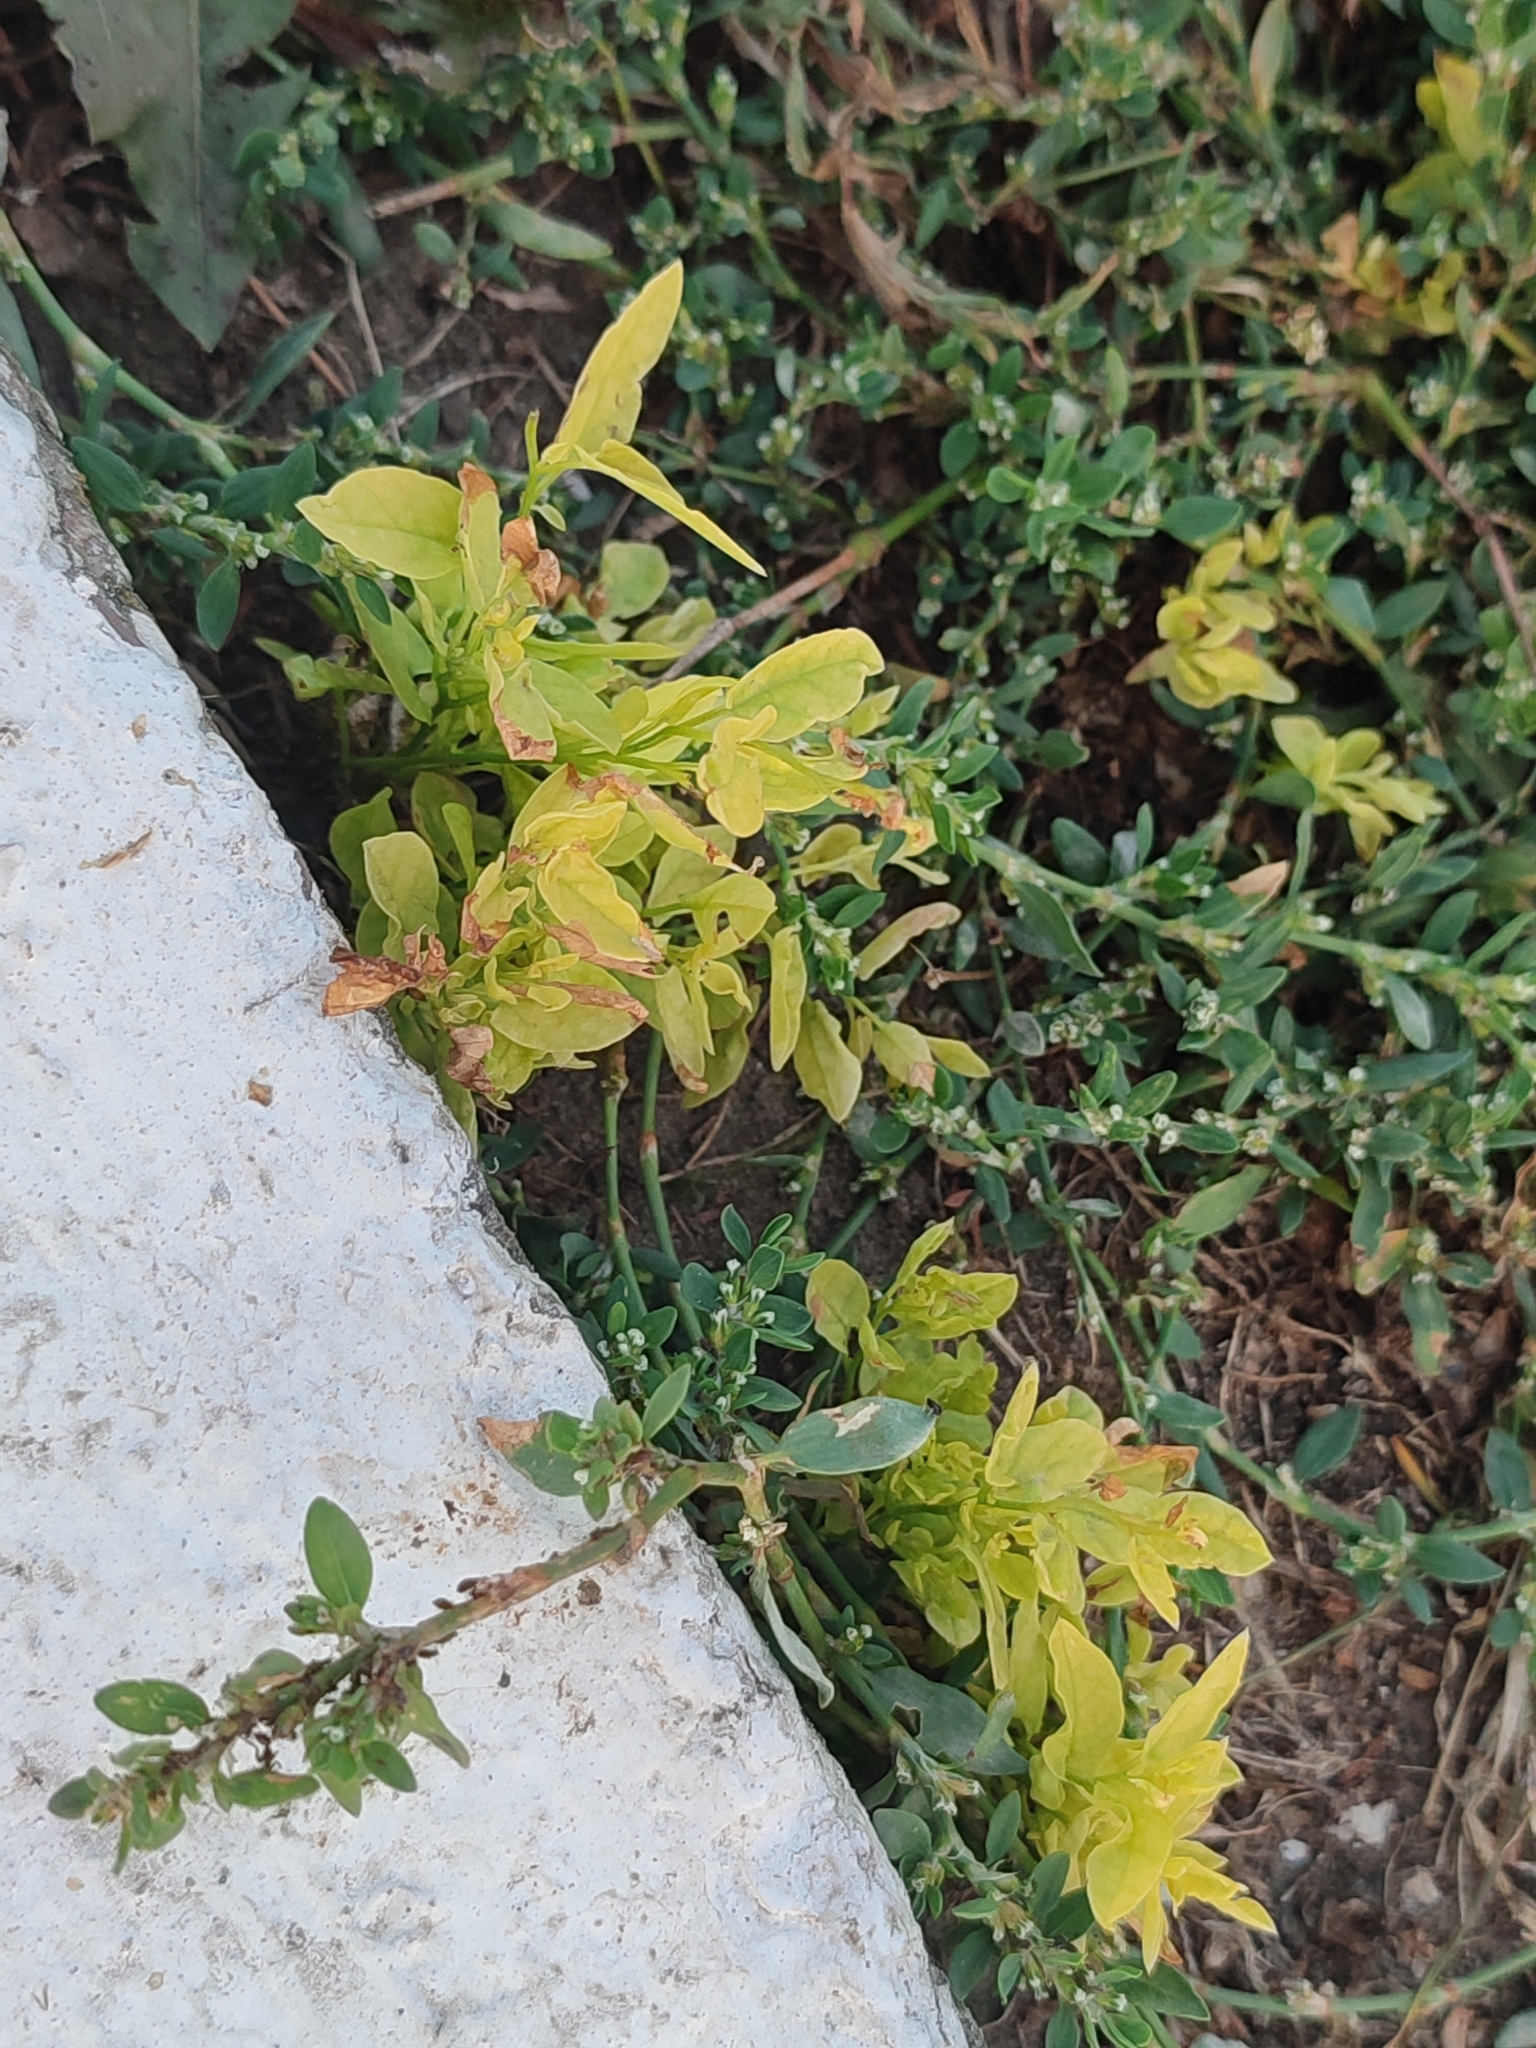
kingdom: Plantae
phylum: Tracheophyta
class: Magnoliopsida
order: Solanales
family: Convolvulaceae
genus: Convolvulus
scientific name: Convolvulus arvensis
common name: Field bindweed
